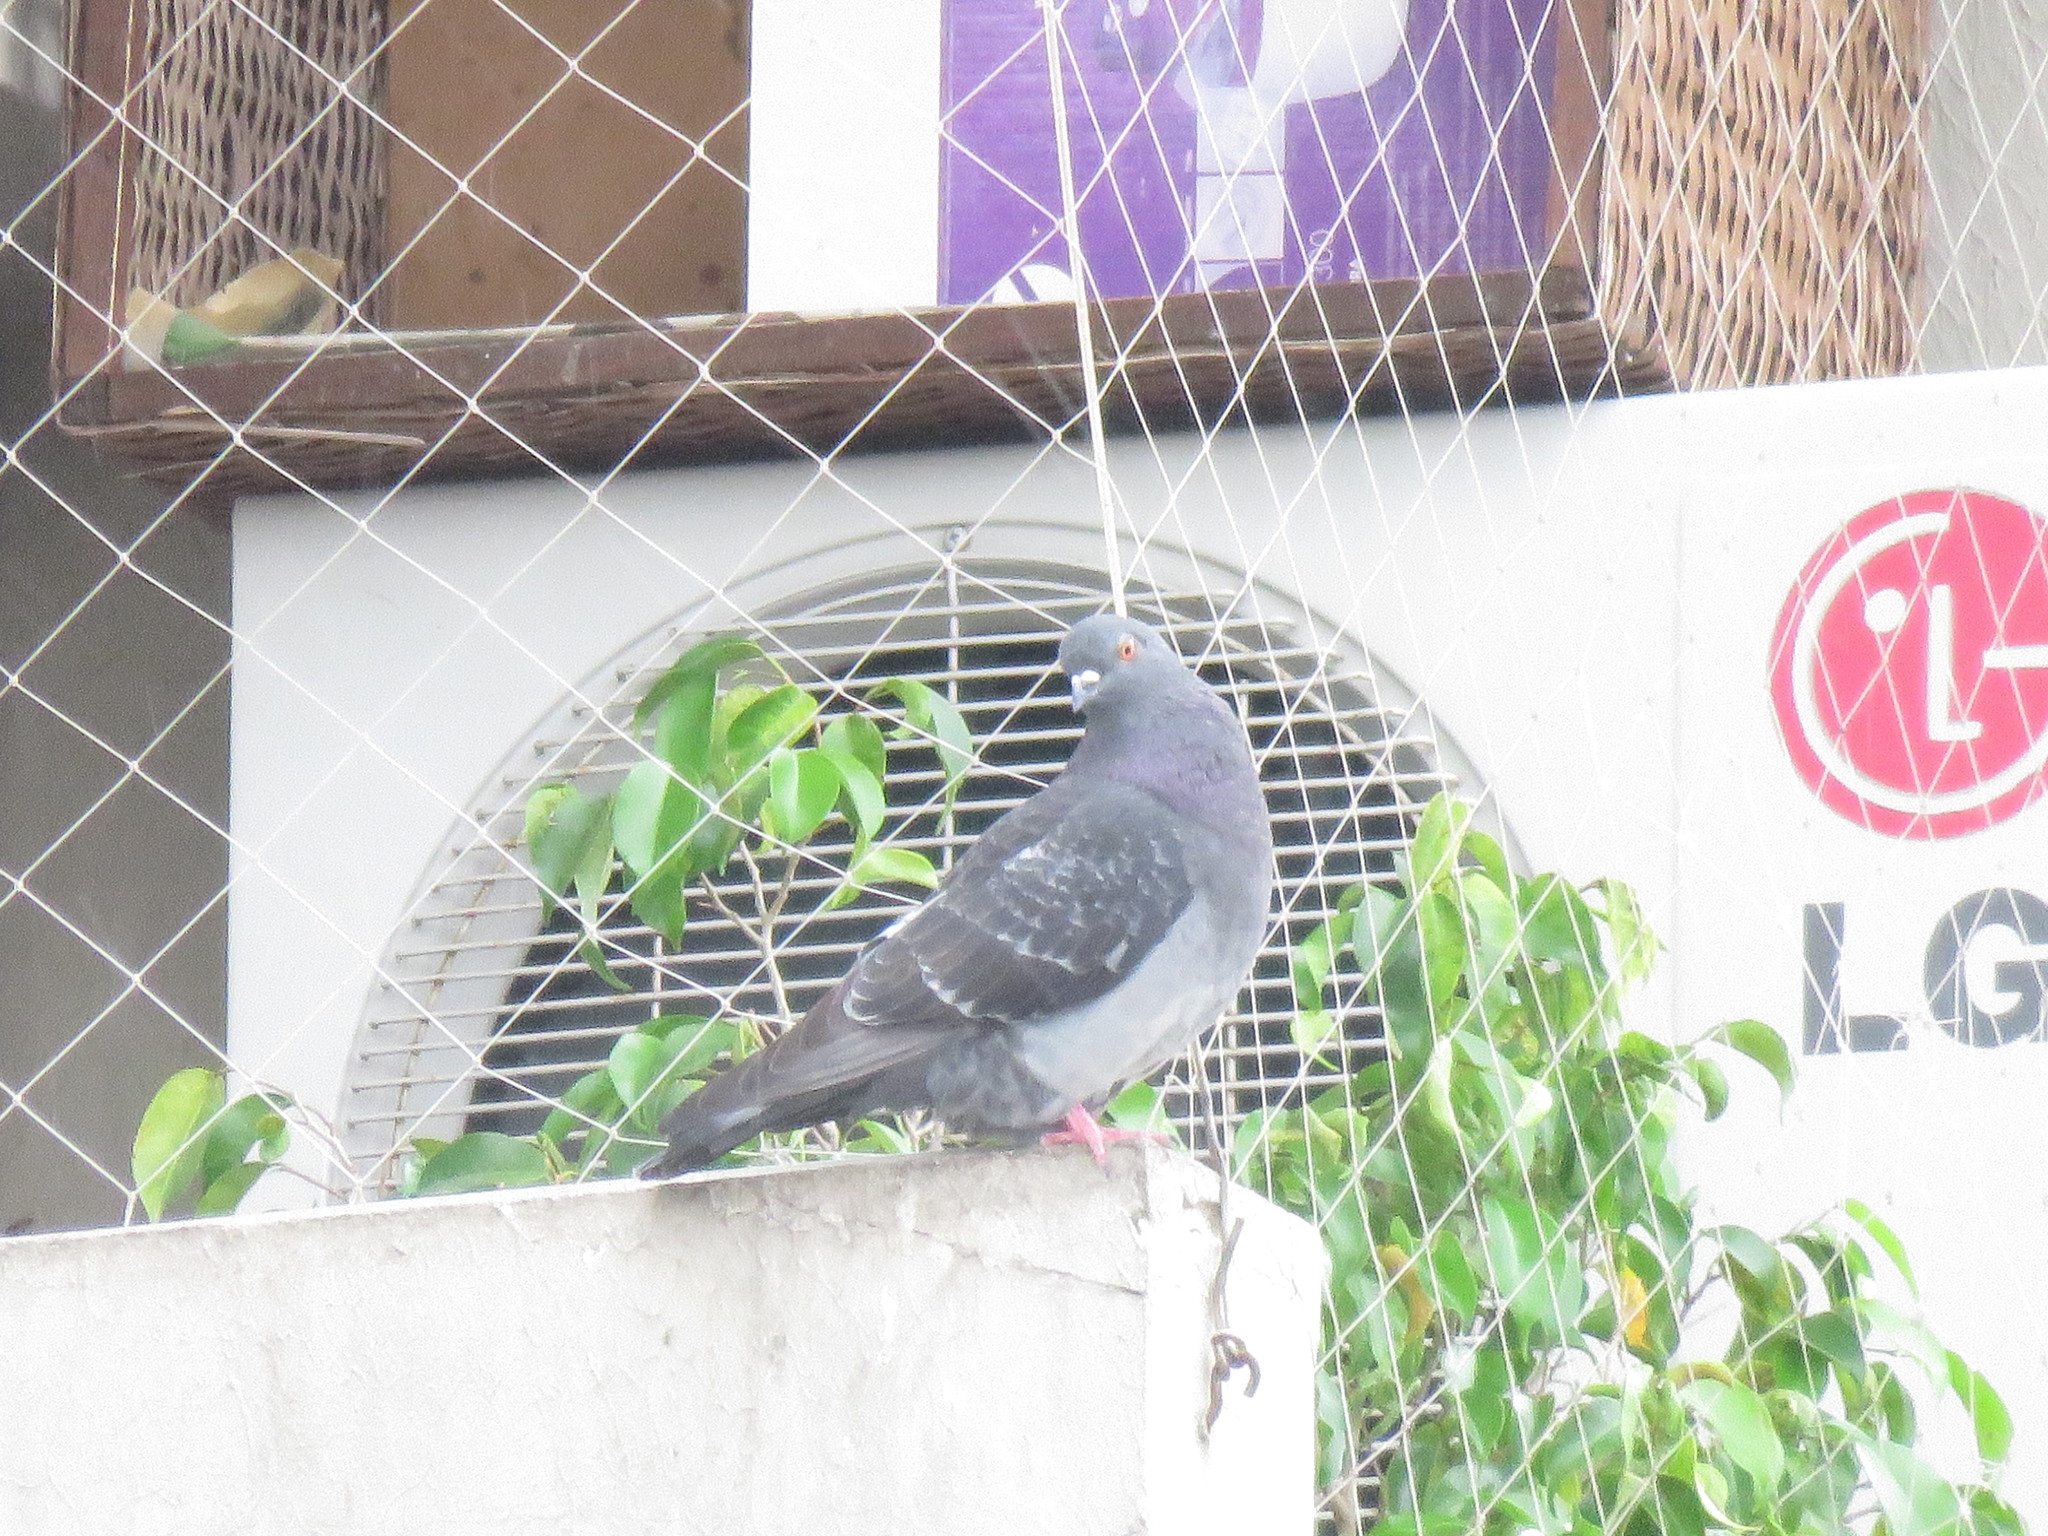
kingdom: Animalia
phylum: Chordata
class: Aves
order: Columbiformes
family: Columbidae
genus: Columba
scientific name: Columba livia
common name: Rock pigeon
